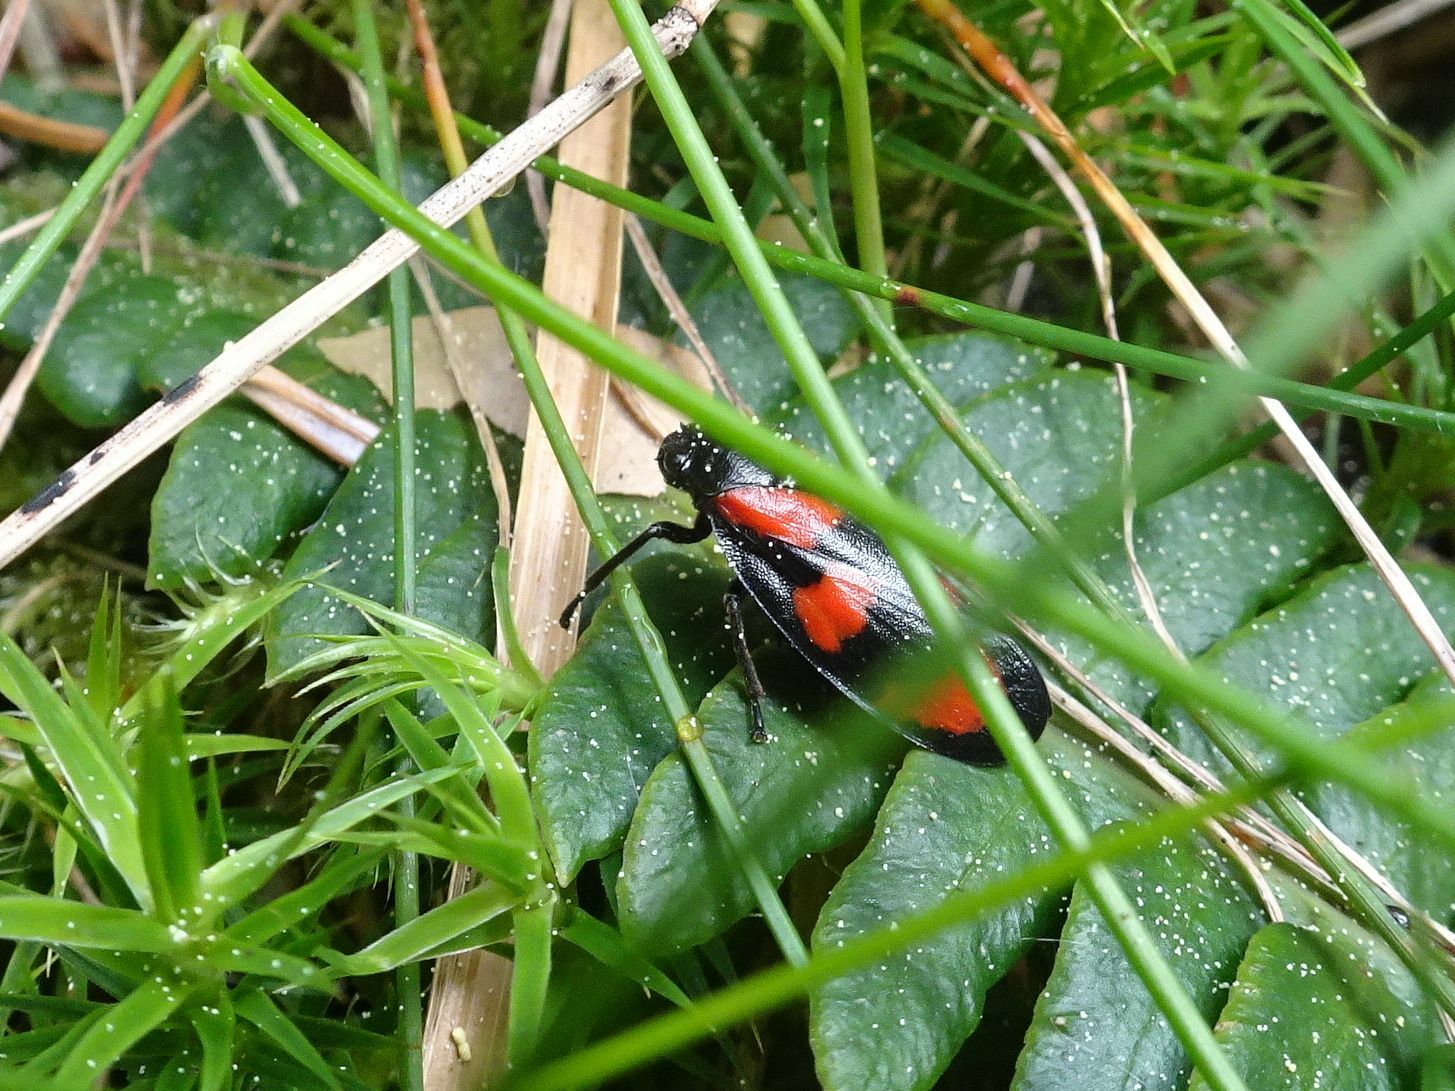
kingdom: Animalia
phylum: Arthropoda
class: Insecta
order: Hemiptera
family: Cercopidae
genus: Cercopis
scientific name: Cercopis vulnerata
